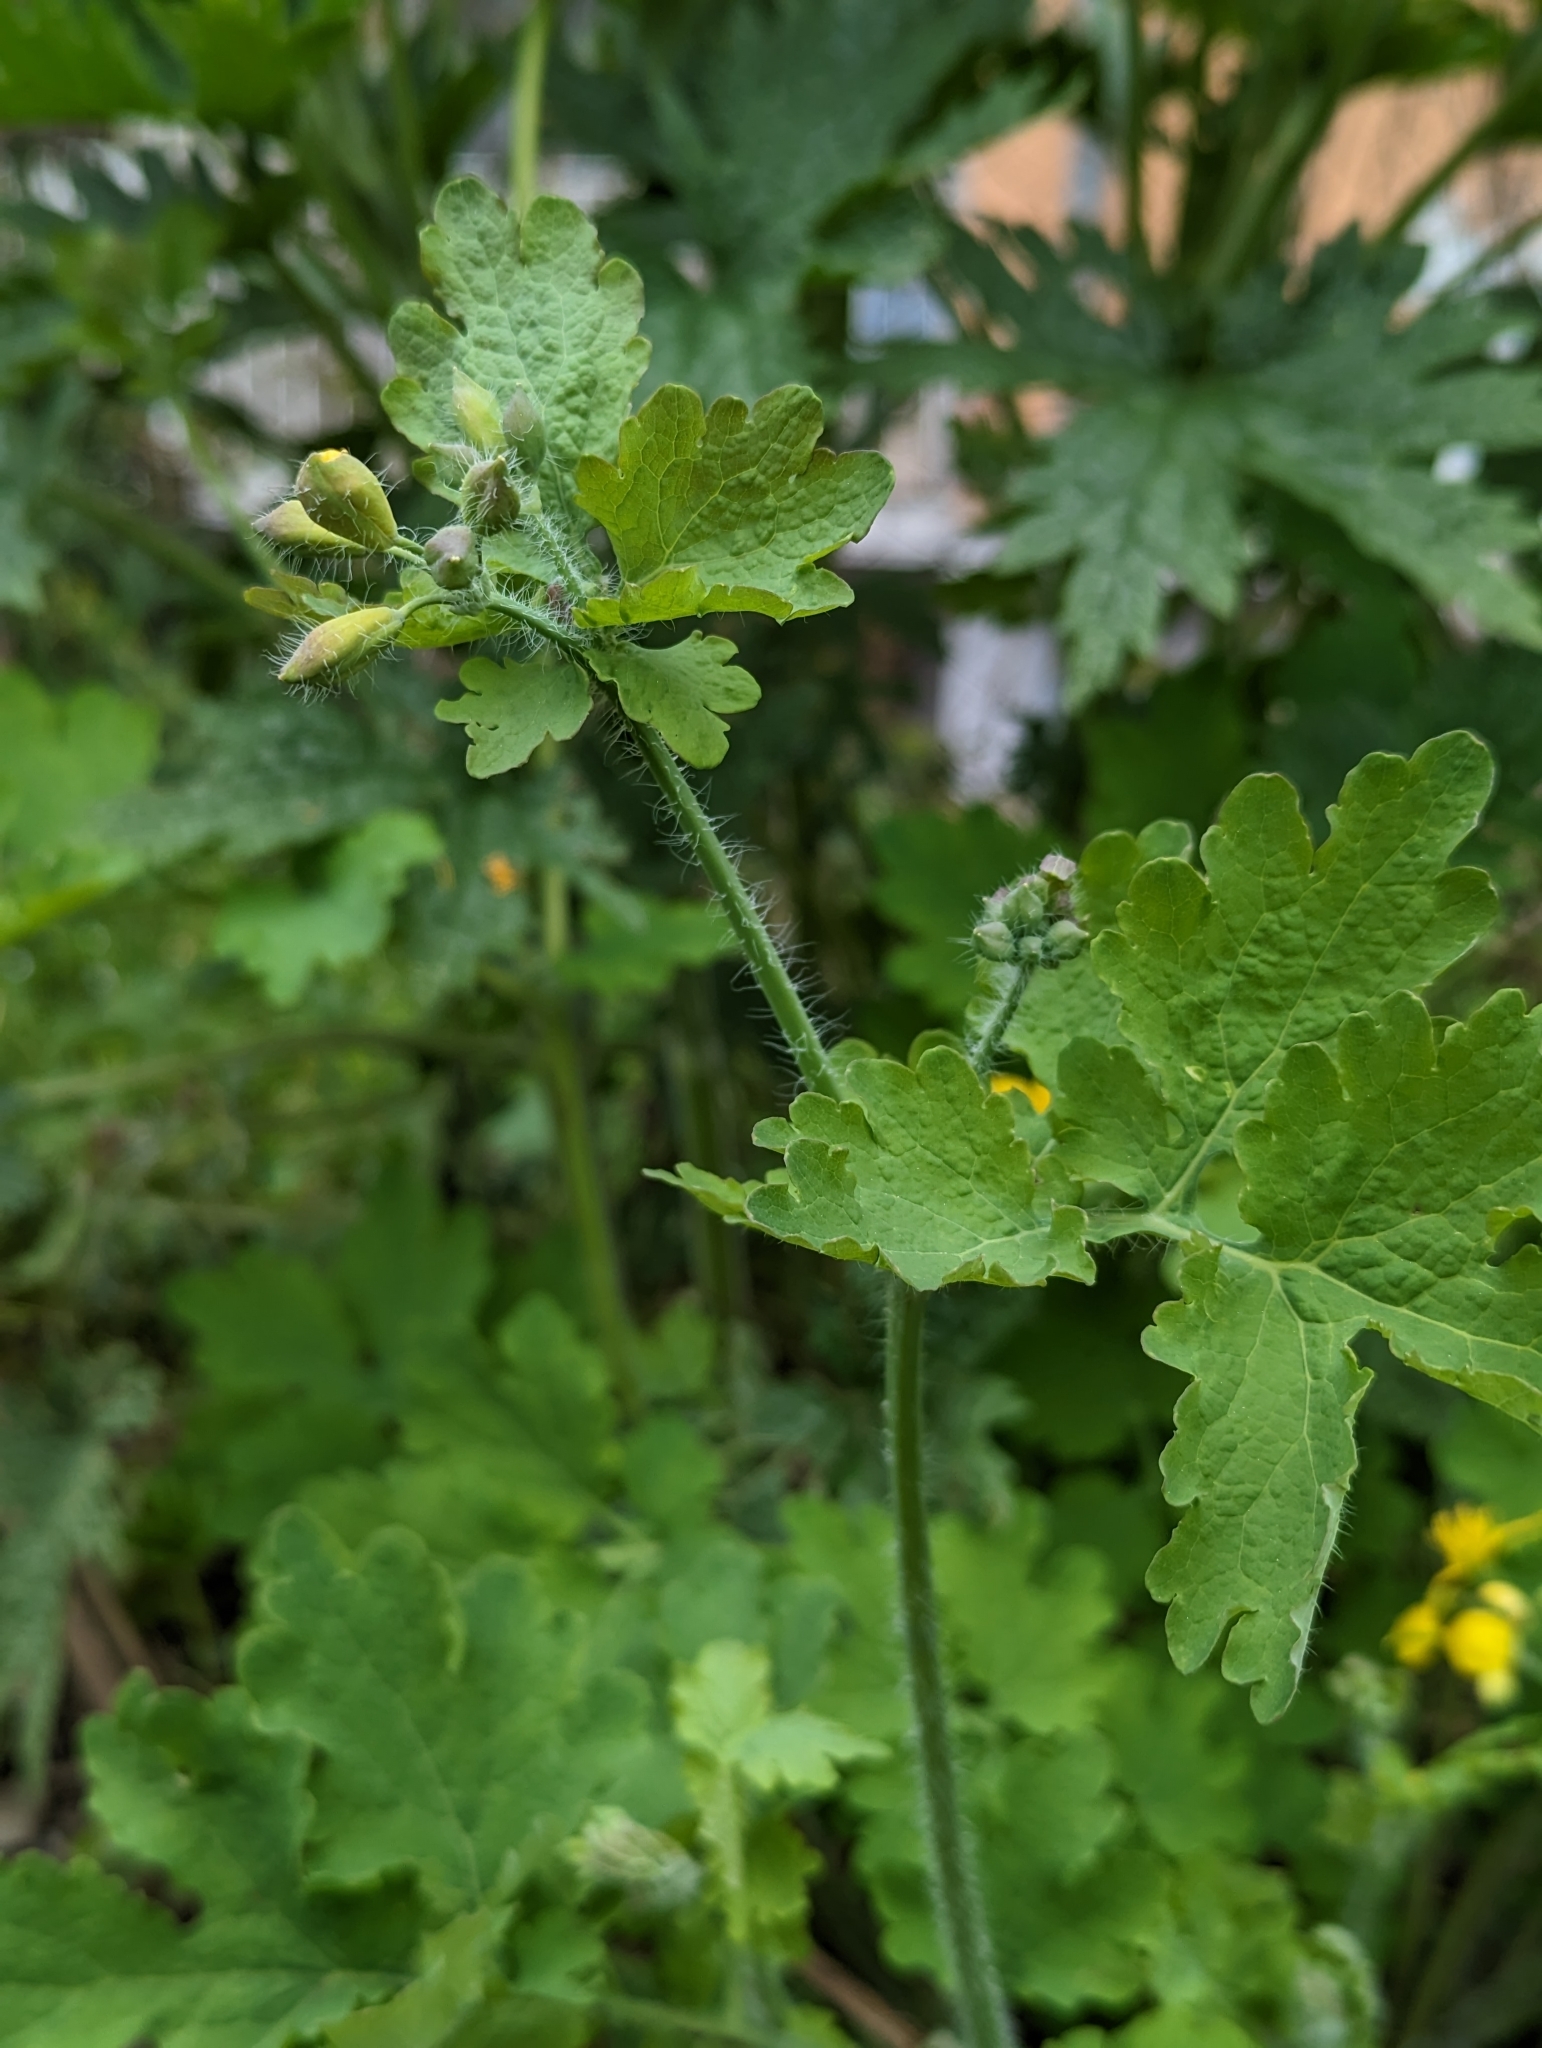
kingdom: Plantae
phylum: Tracheophyta
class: Magnoliopsida
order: Ranunculales
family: Papaveraceae
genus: Chelidonium
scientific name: Chelidonium majus
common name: Greater celandine
